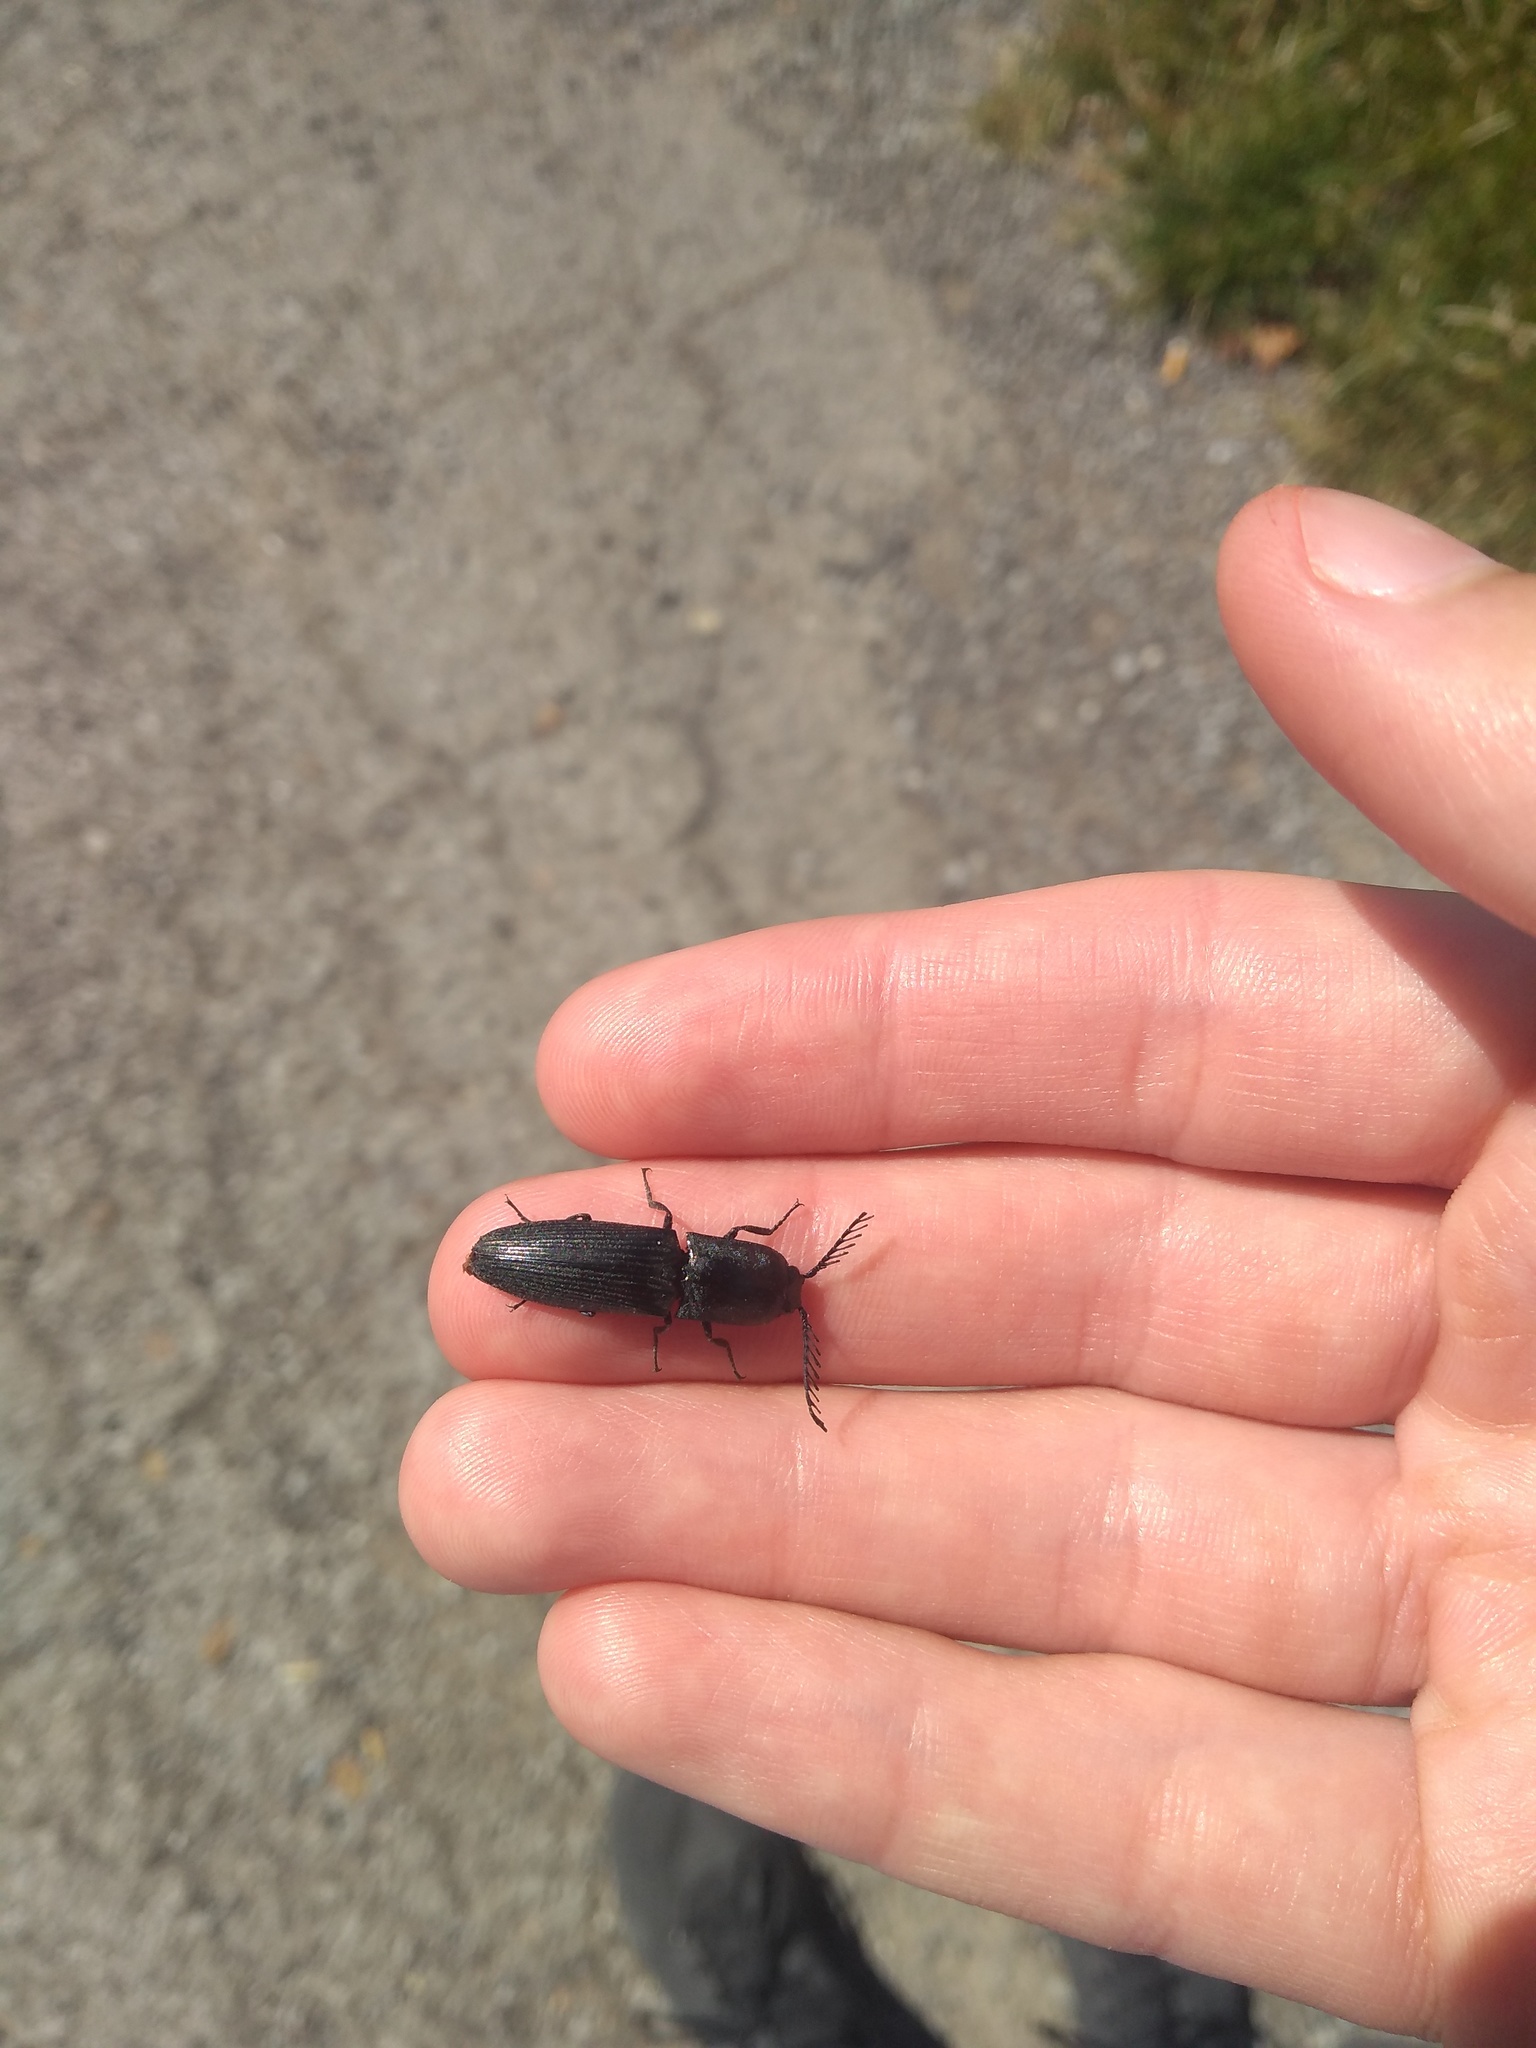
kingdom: Animalia
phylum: Arthropoda
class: Insecta
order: Coleoptera
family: Elateridae
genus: Chalcolepidius
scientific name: Chalcolepidius
